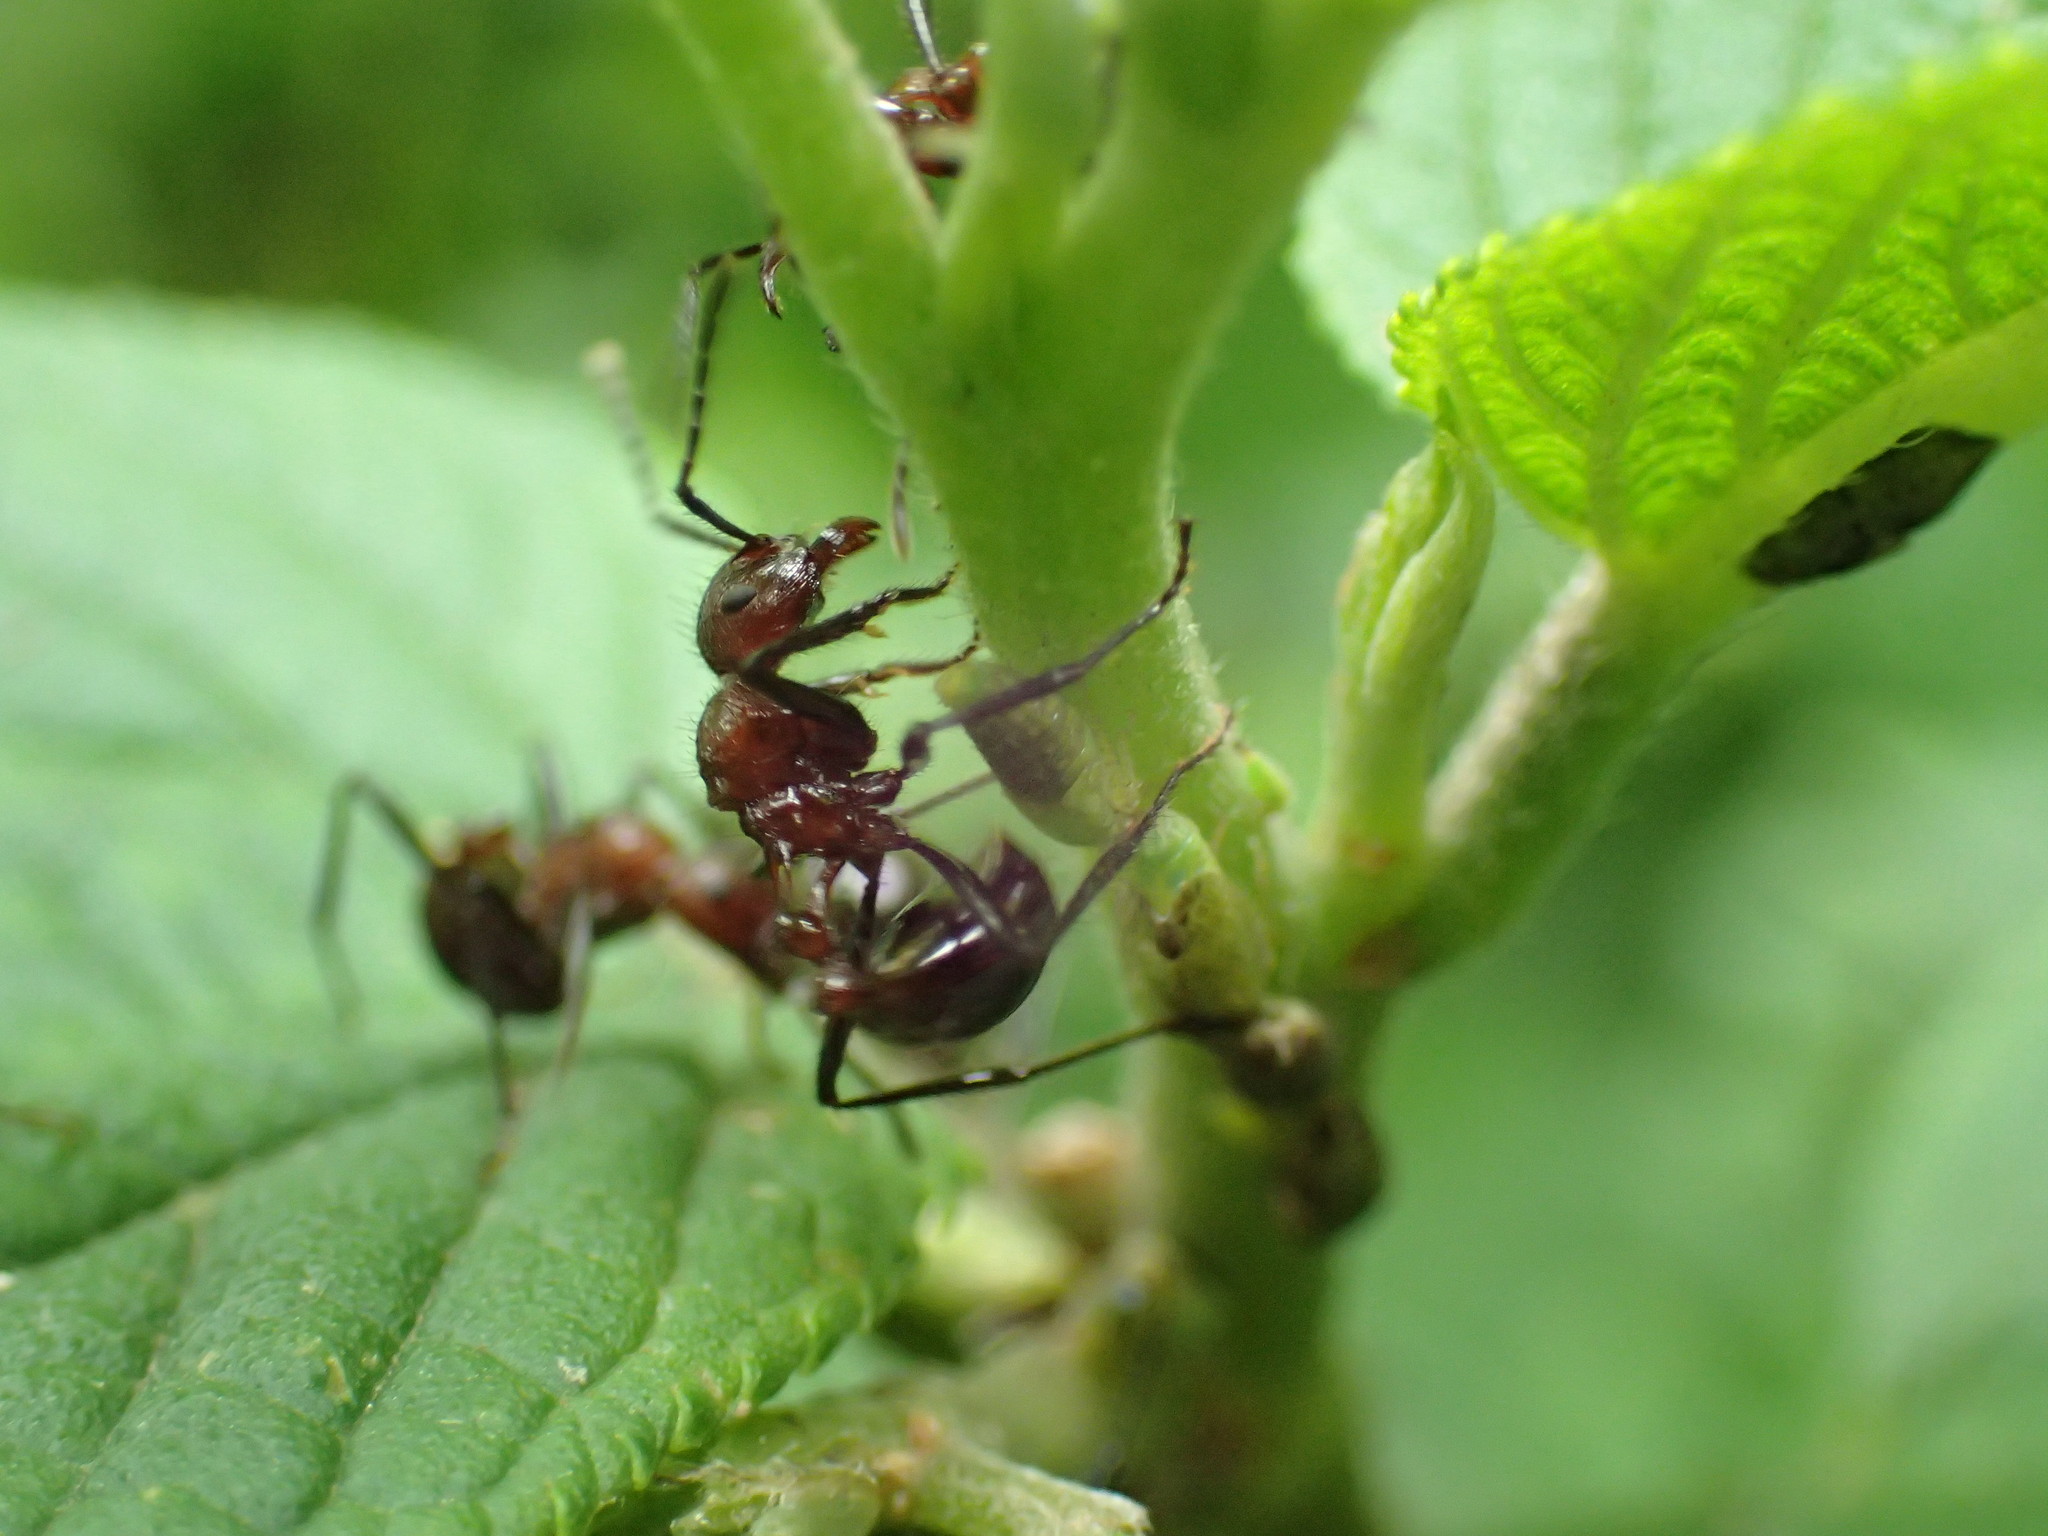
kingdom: Animalia
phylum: Arthropoda
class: Insecta
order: Hymenoptera
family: Formicidae
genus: Myrmicaria
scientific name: Myrmicaria natalensis
